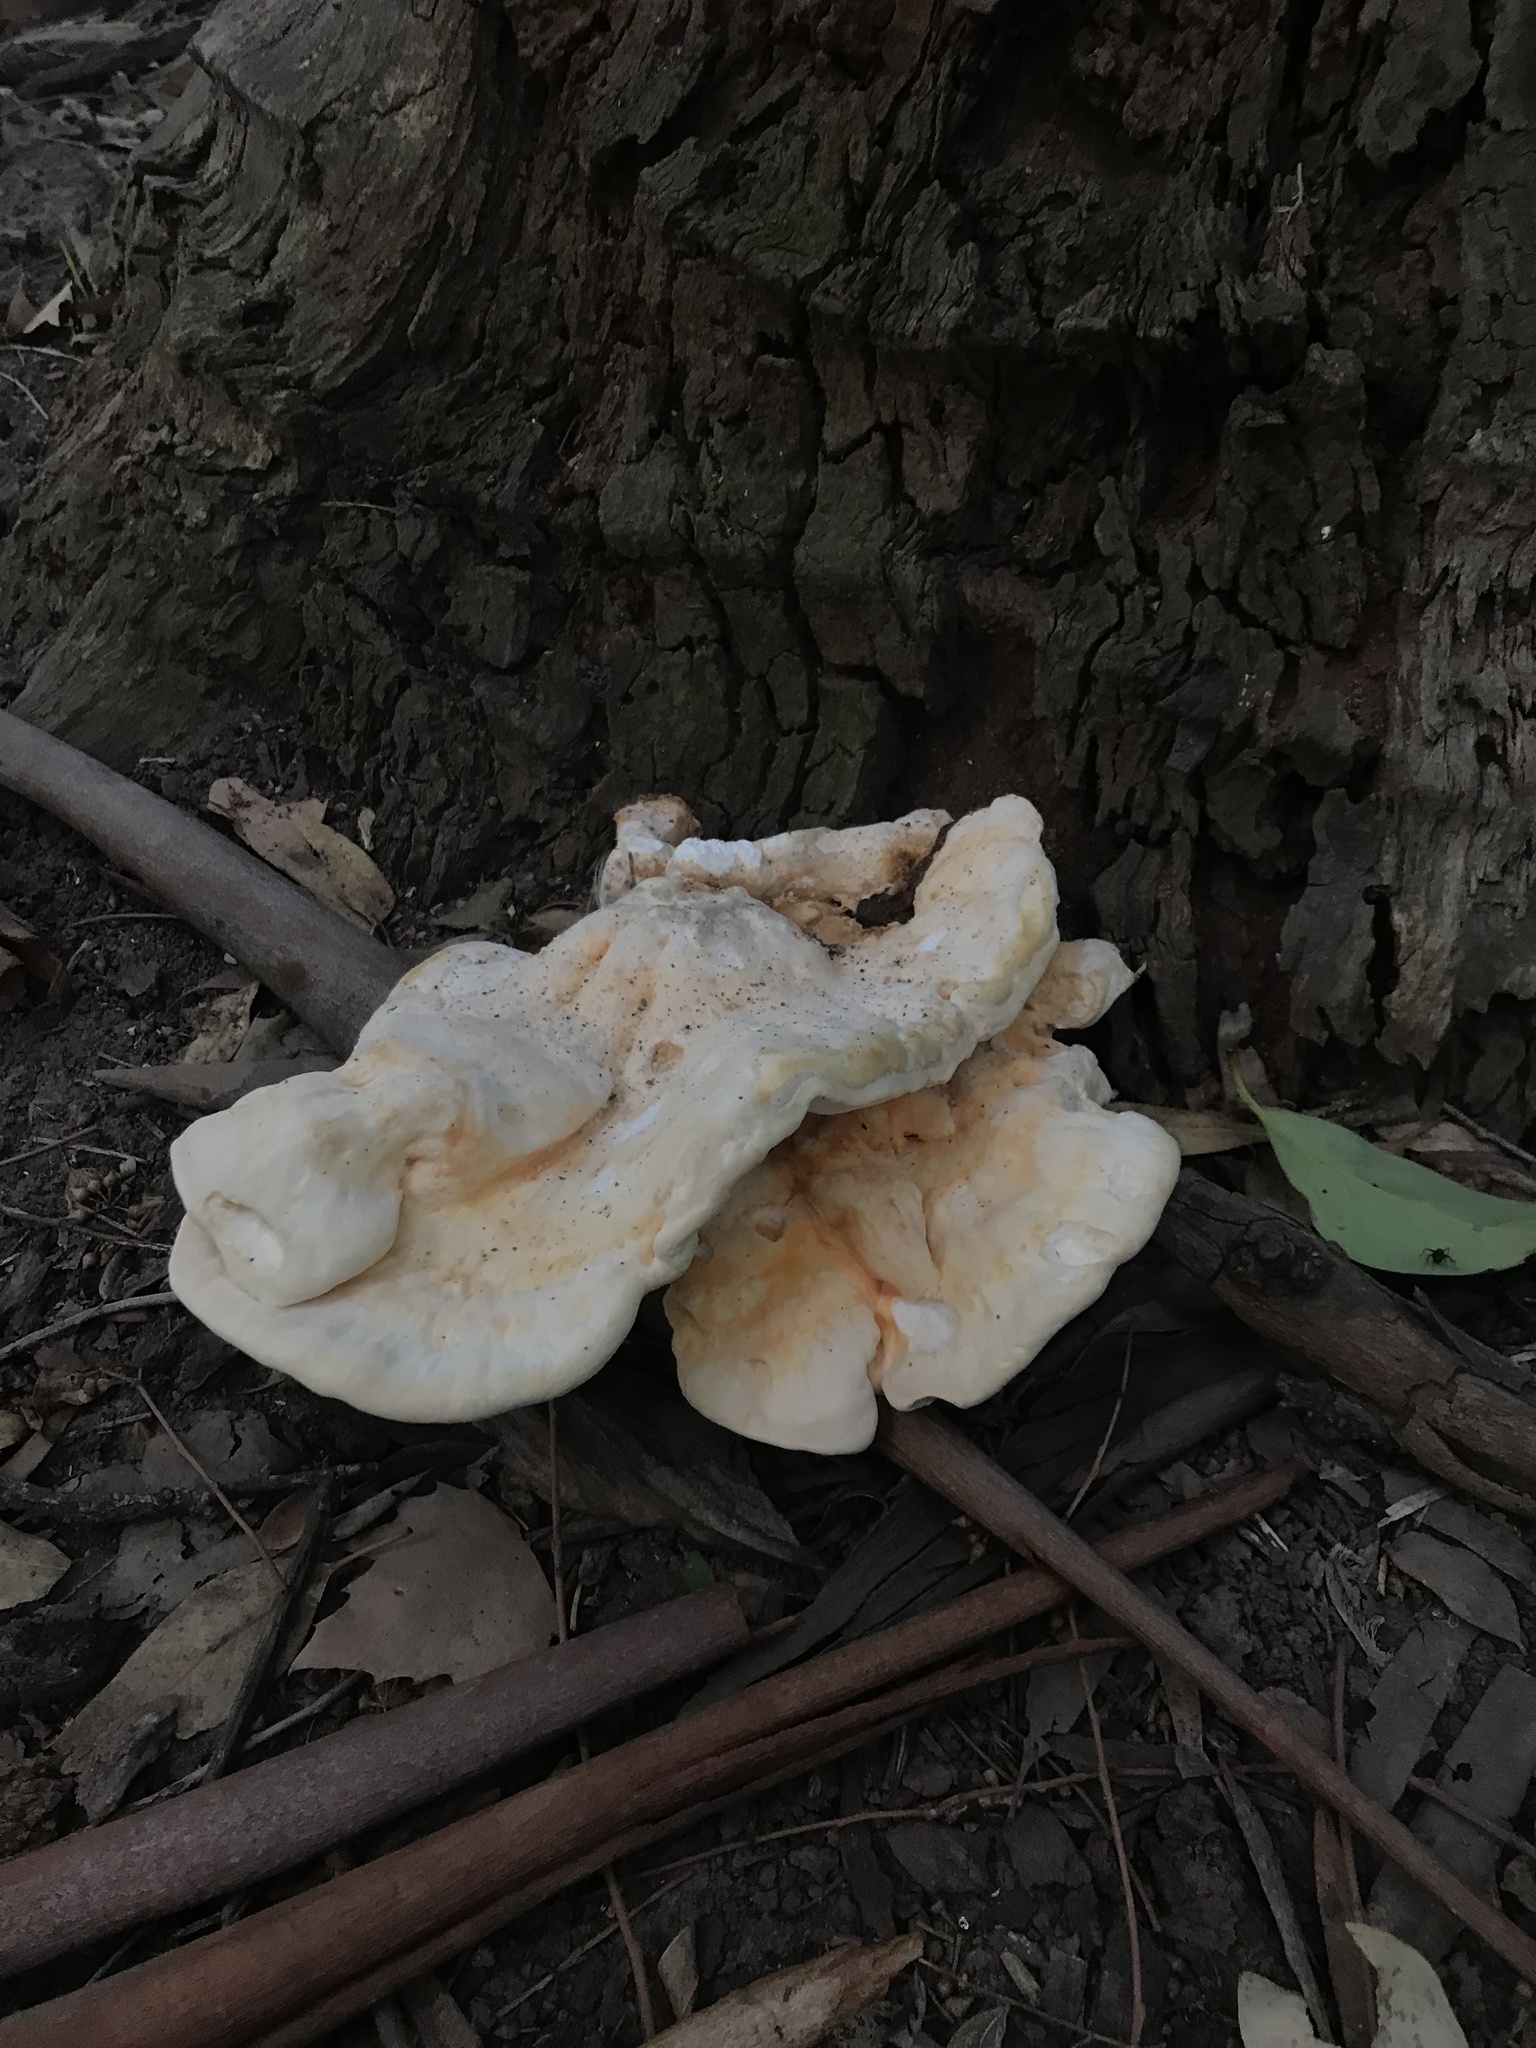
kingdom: Fungi
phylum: Basidiomycota
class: Agaricomycetes
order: Polyporales
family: Laetiporaceae
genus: Laetiporus
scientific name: Laetiporus sulphureus
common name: Chicken of the woods
